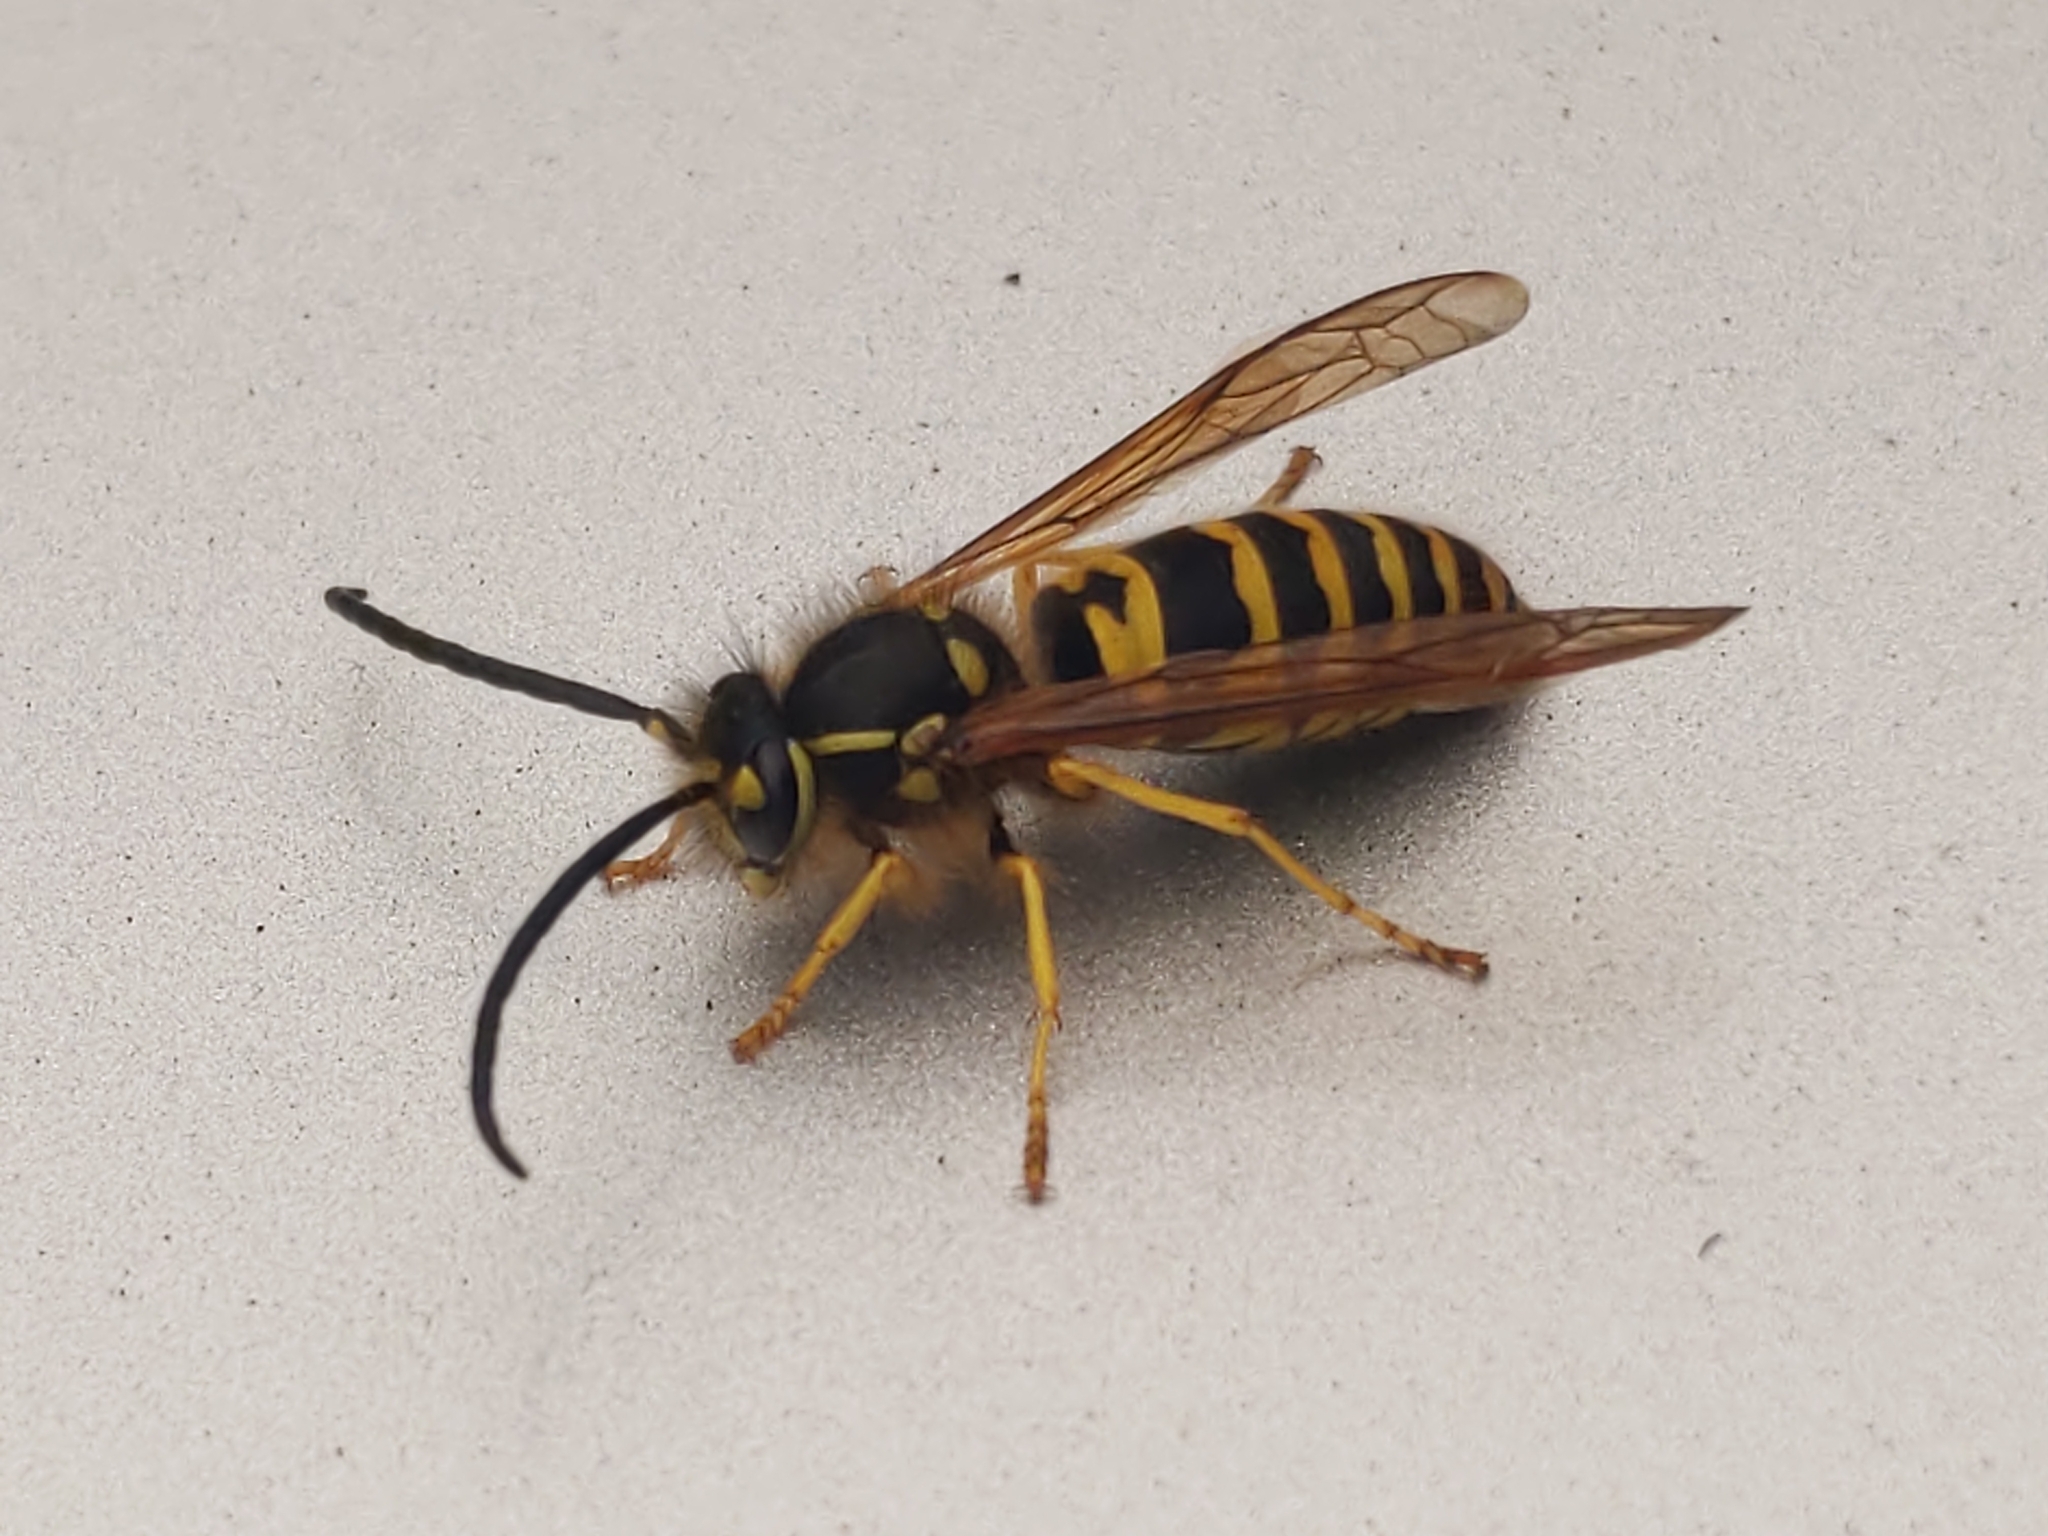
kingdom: Animalia
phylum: Arthropoda
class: Insecta
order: Hymenoptera
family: Vespidae
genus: Vespula
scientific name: Vespula maculifrons
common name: Eastern yellowjacket
